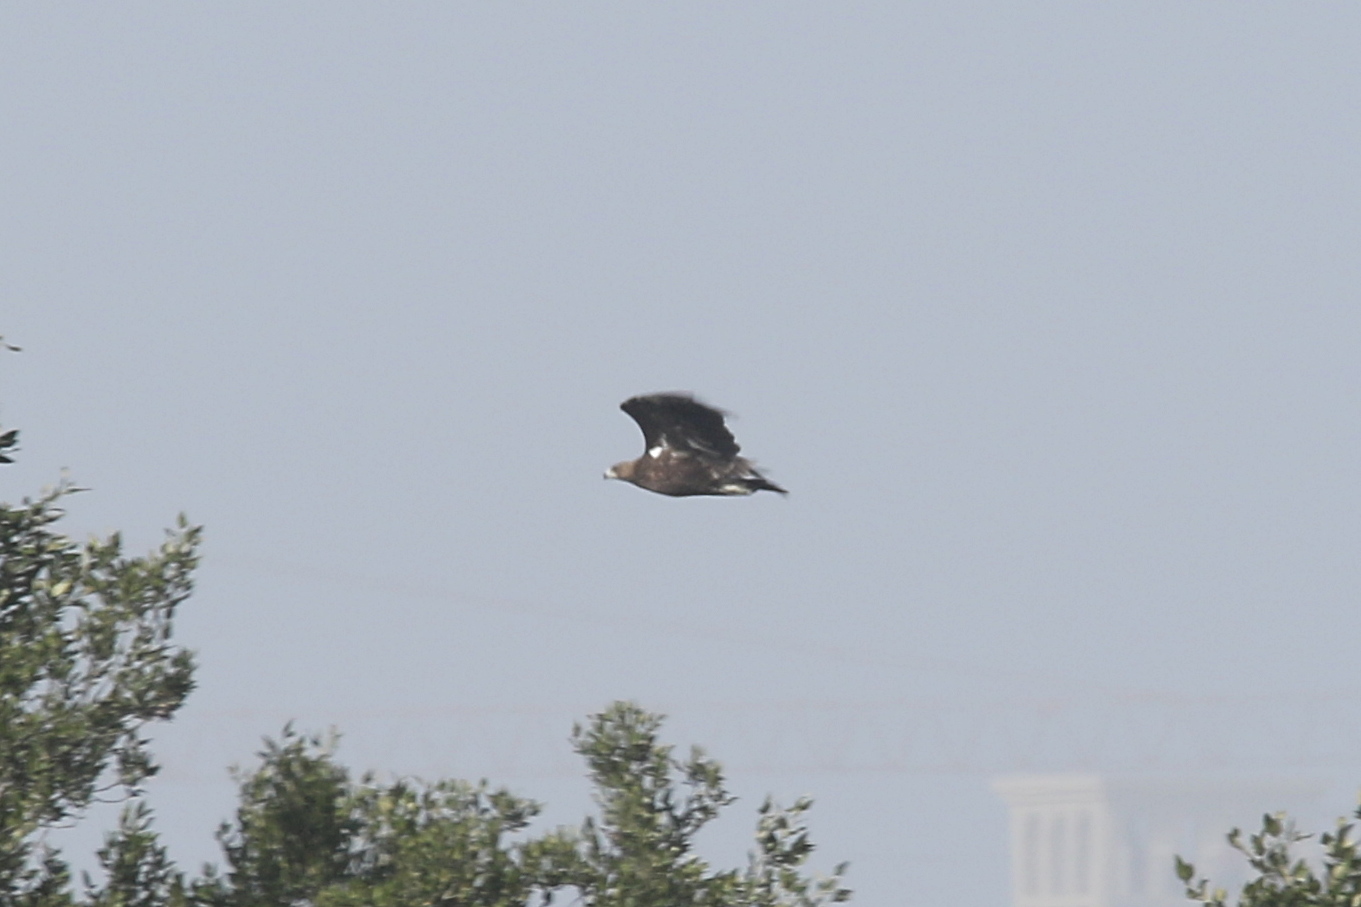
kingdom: Animalia
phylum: Chordata
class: Aves
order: Accipitriformes
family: Accipitridae
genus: Aquila
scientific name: Aquila clanga
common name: Greater spotted eagle
